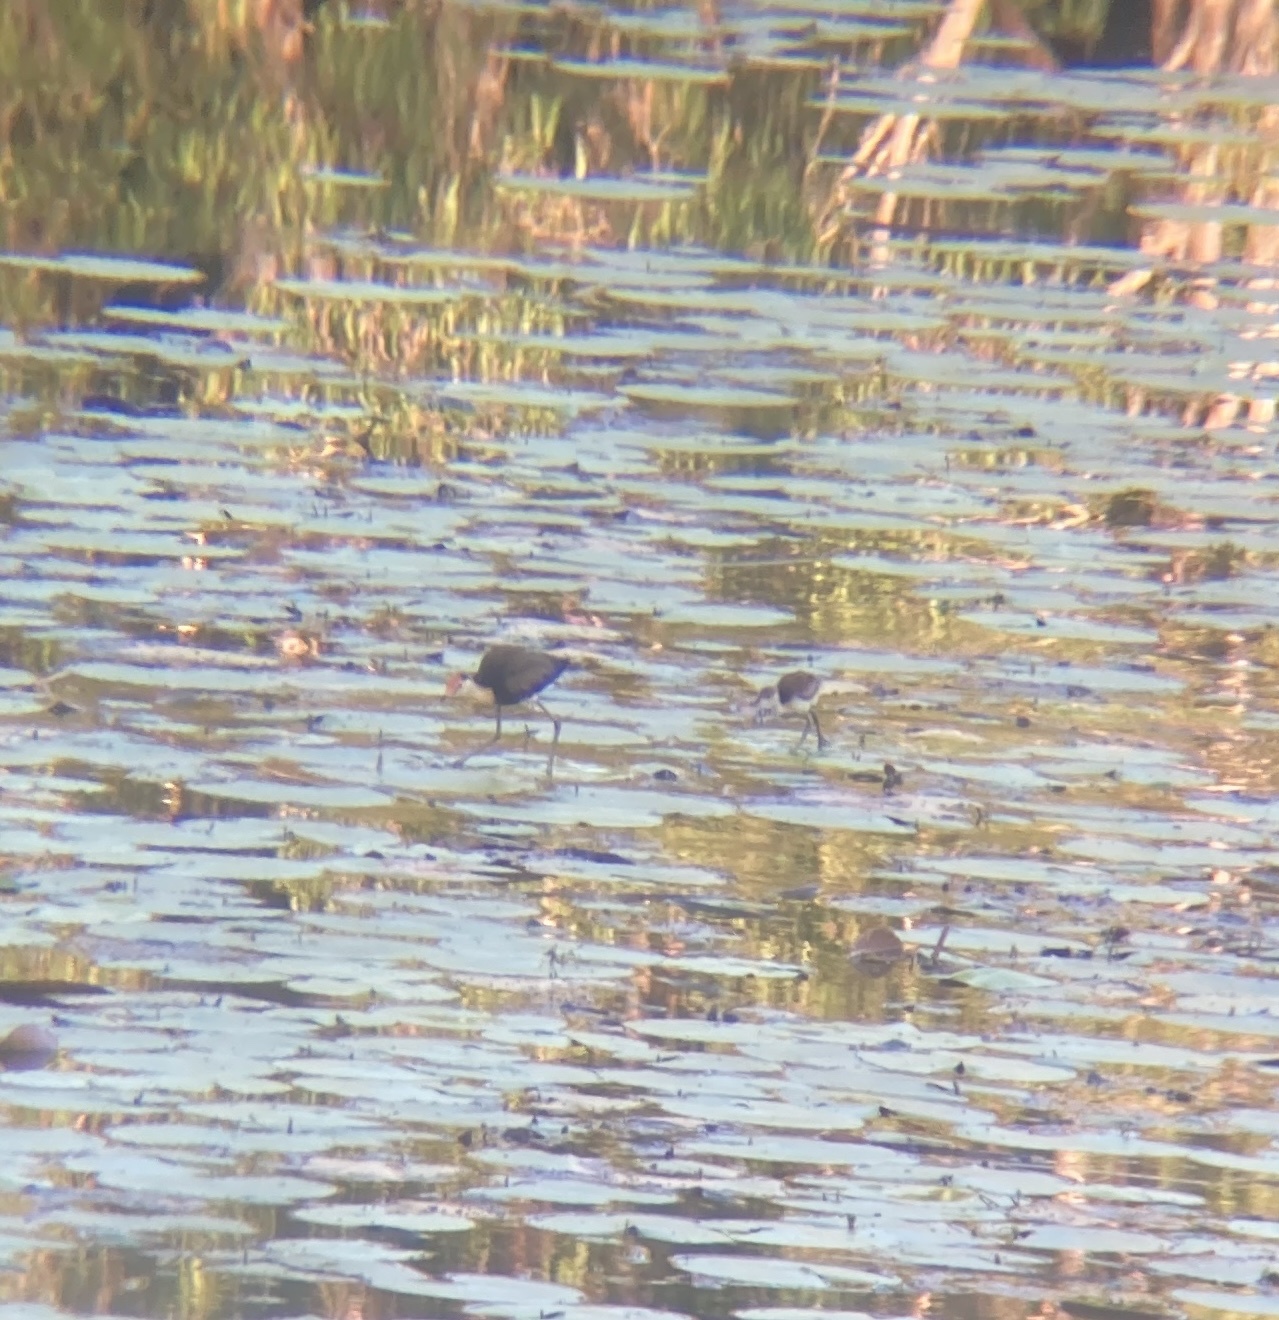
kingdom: Animalia
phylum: Chordata
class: Aves
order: Charadriiformes
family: Jacanidae
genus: Irediparra
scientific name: Irediparra gallinacea
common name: Comb-crested jacana
